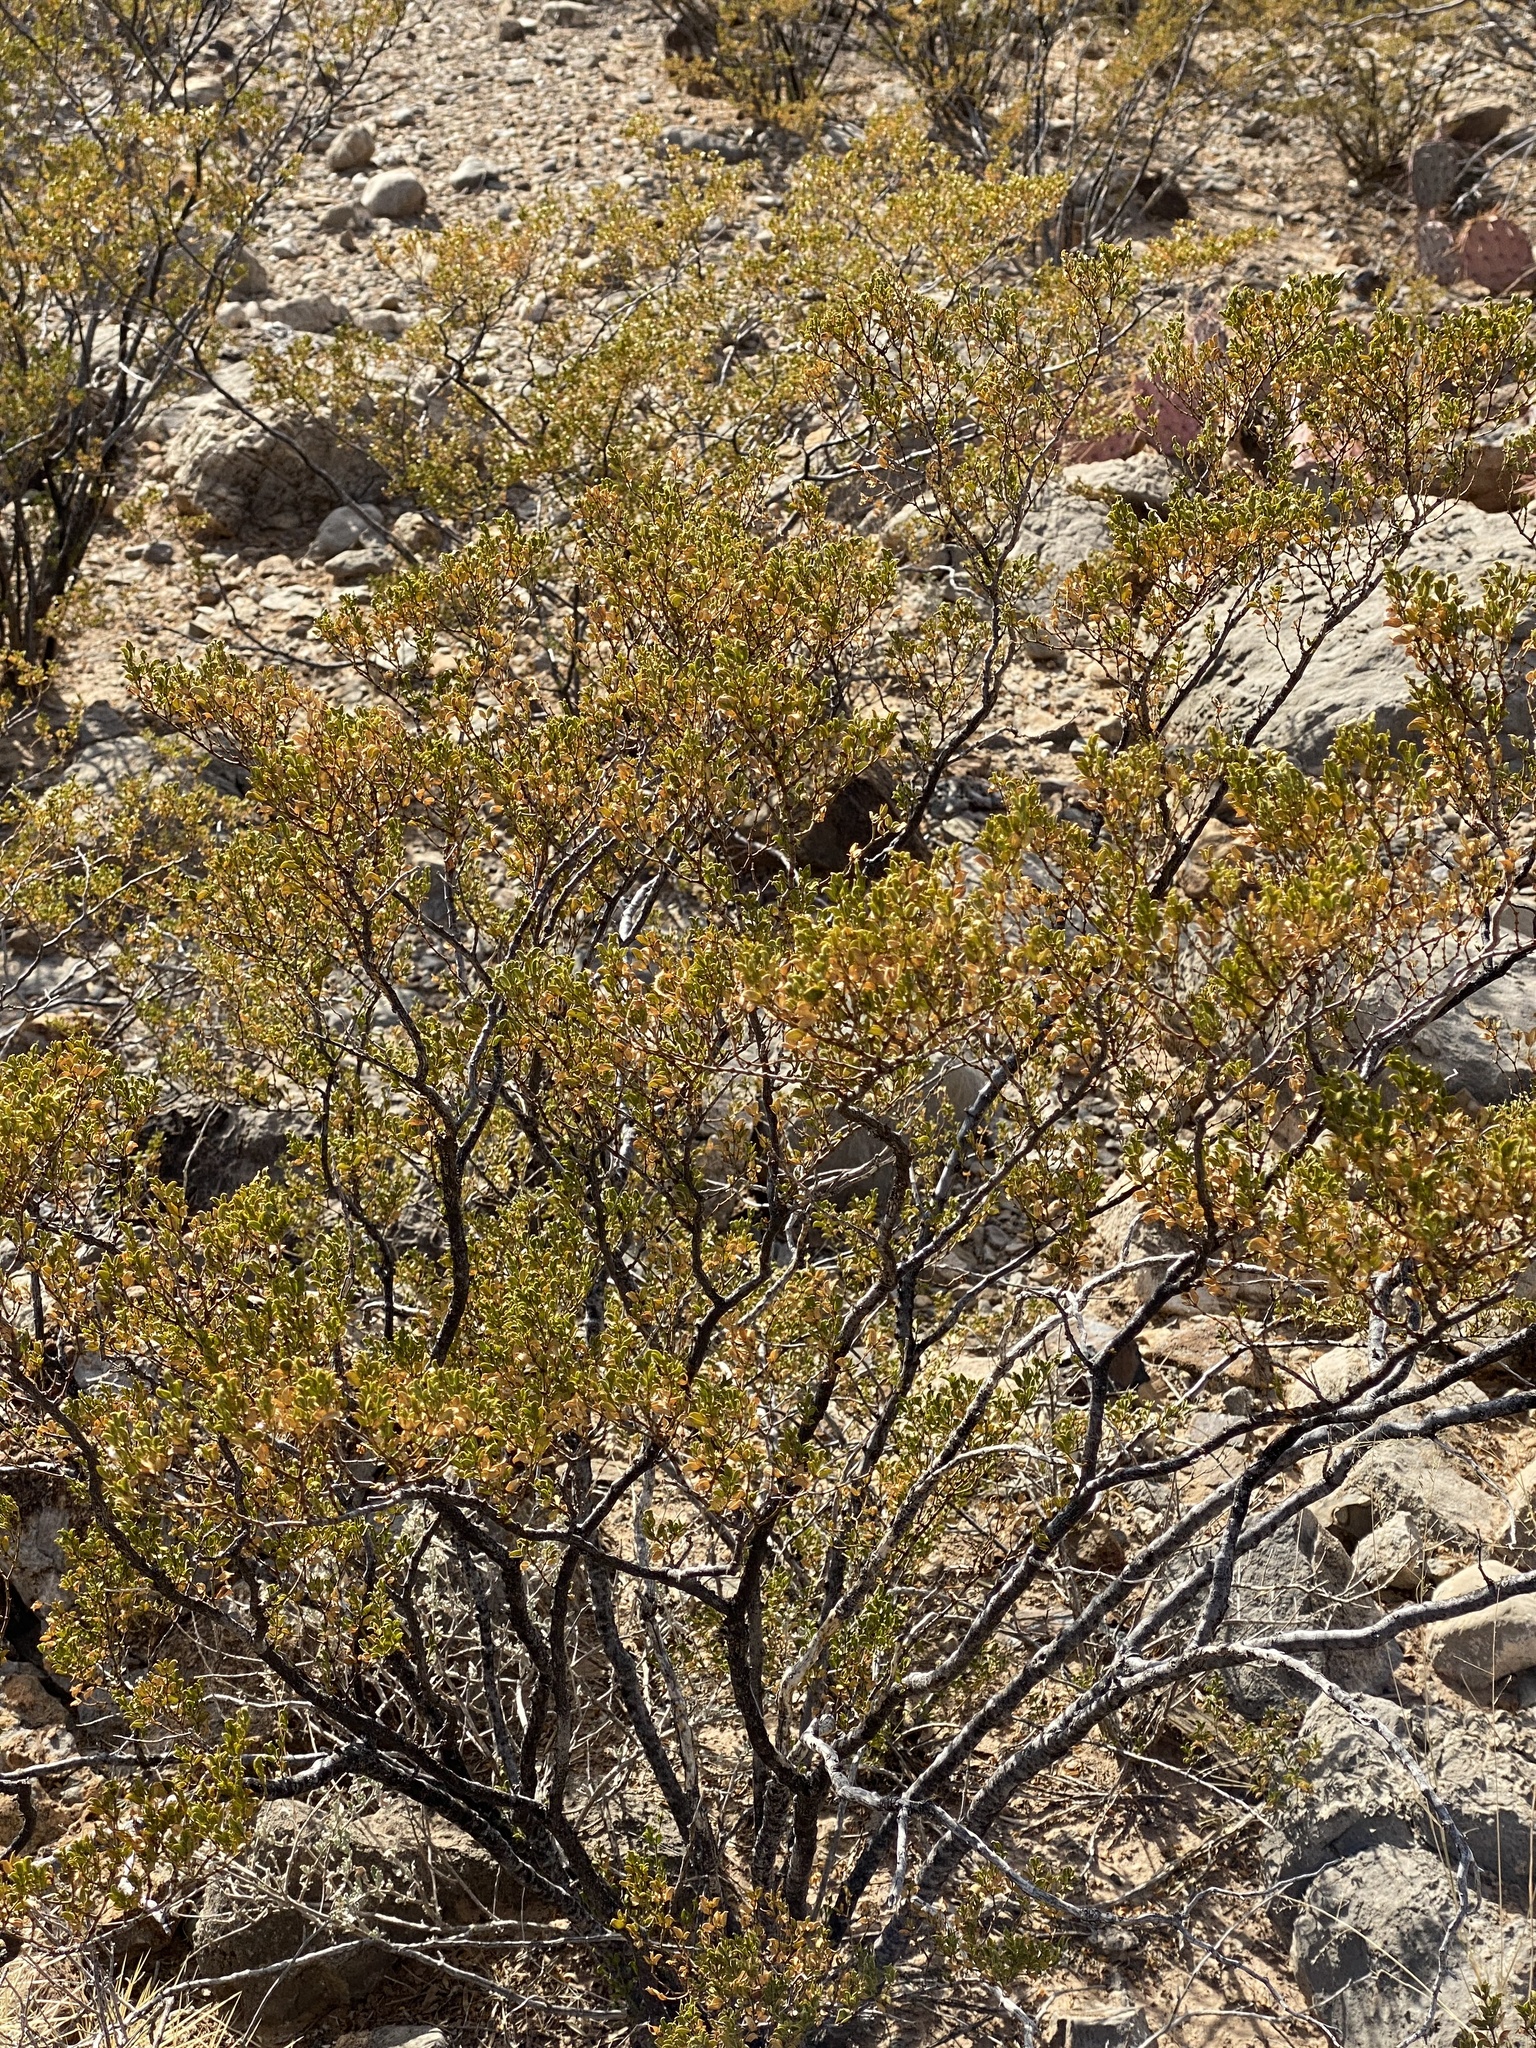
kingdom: Plantae
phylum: Tracheophyta
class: Magnoliopsida
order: Zygophyllales
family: Zygophyllaceae
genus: Larrea
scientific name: Larrea tridentata
